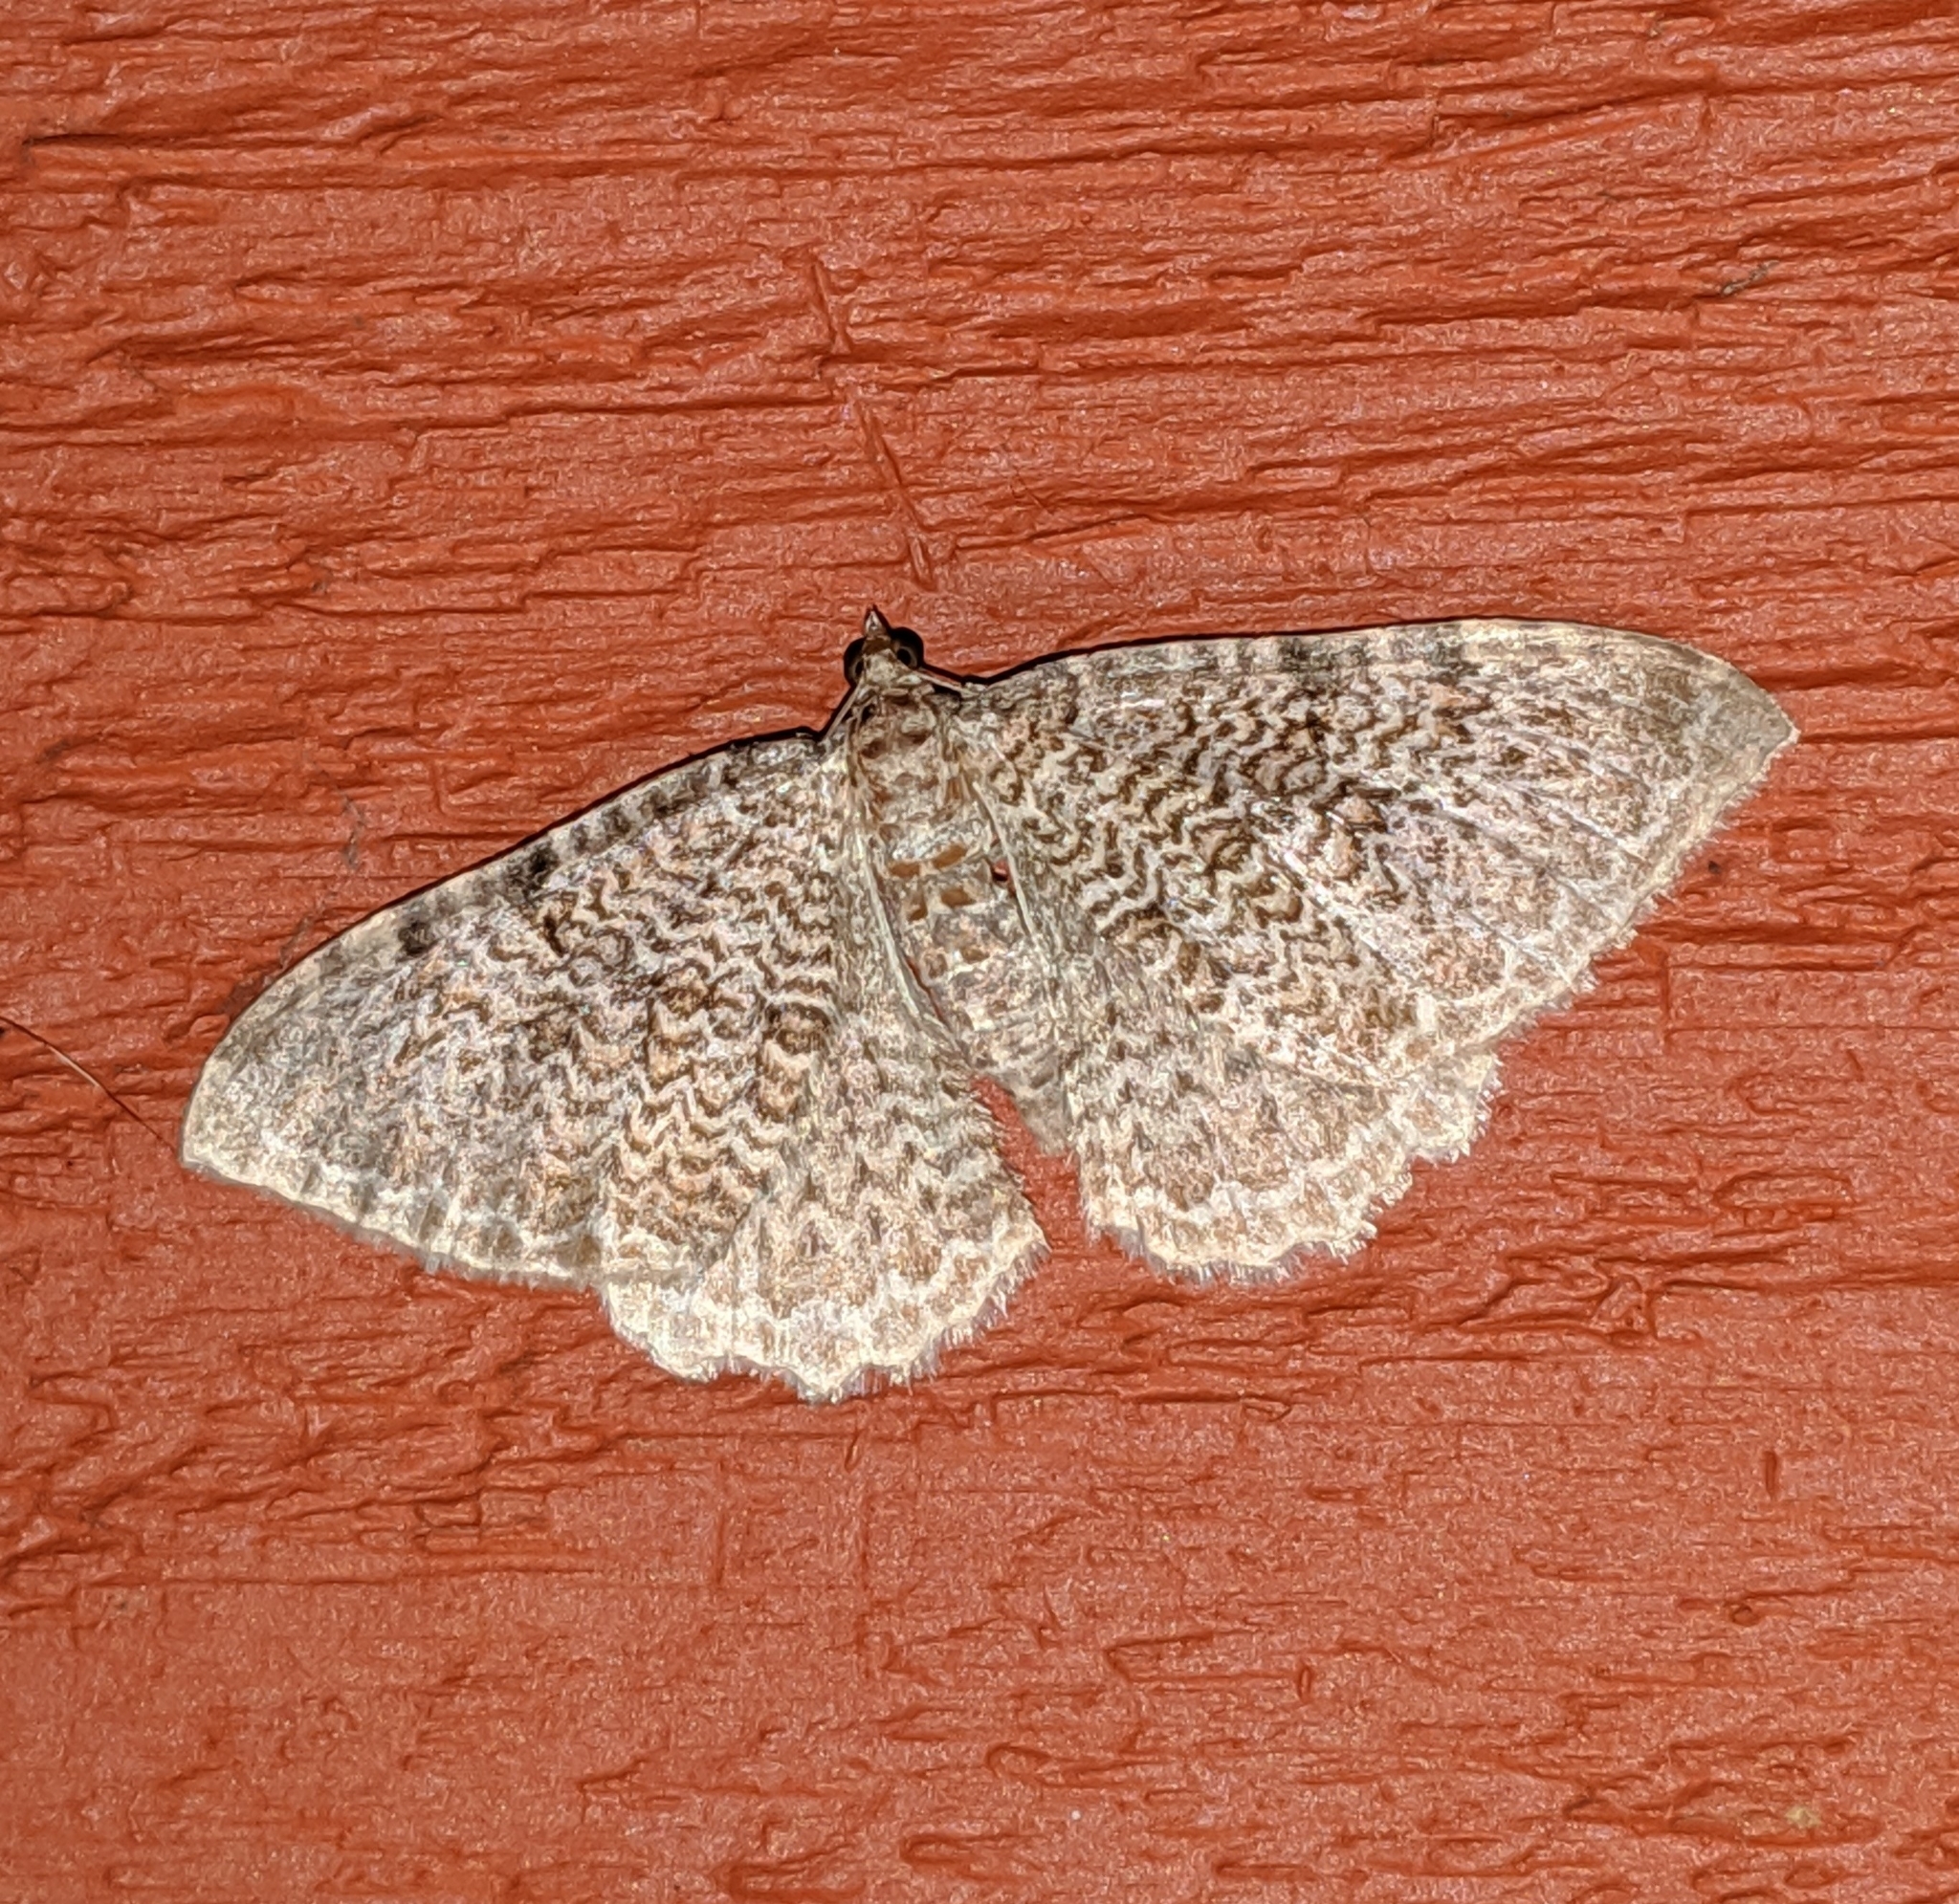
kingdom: Animalia
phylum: Arthropoda
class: Insecta
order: Lepidoptera
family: Geometridae
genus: Rheumaptera
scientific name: Rheumaptera undulata
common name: Scallop shell
